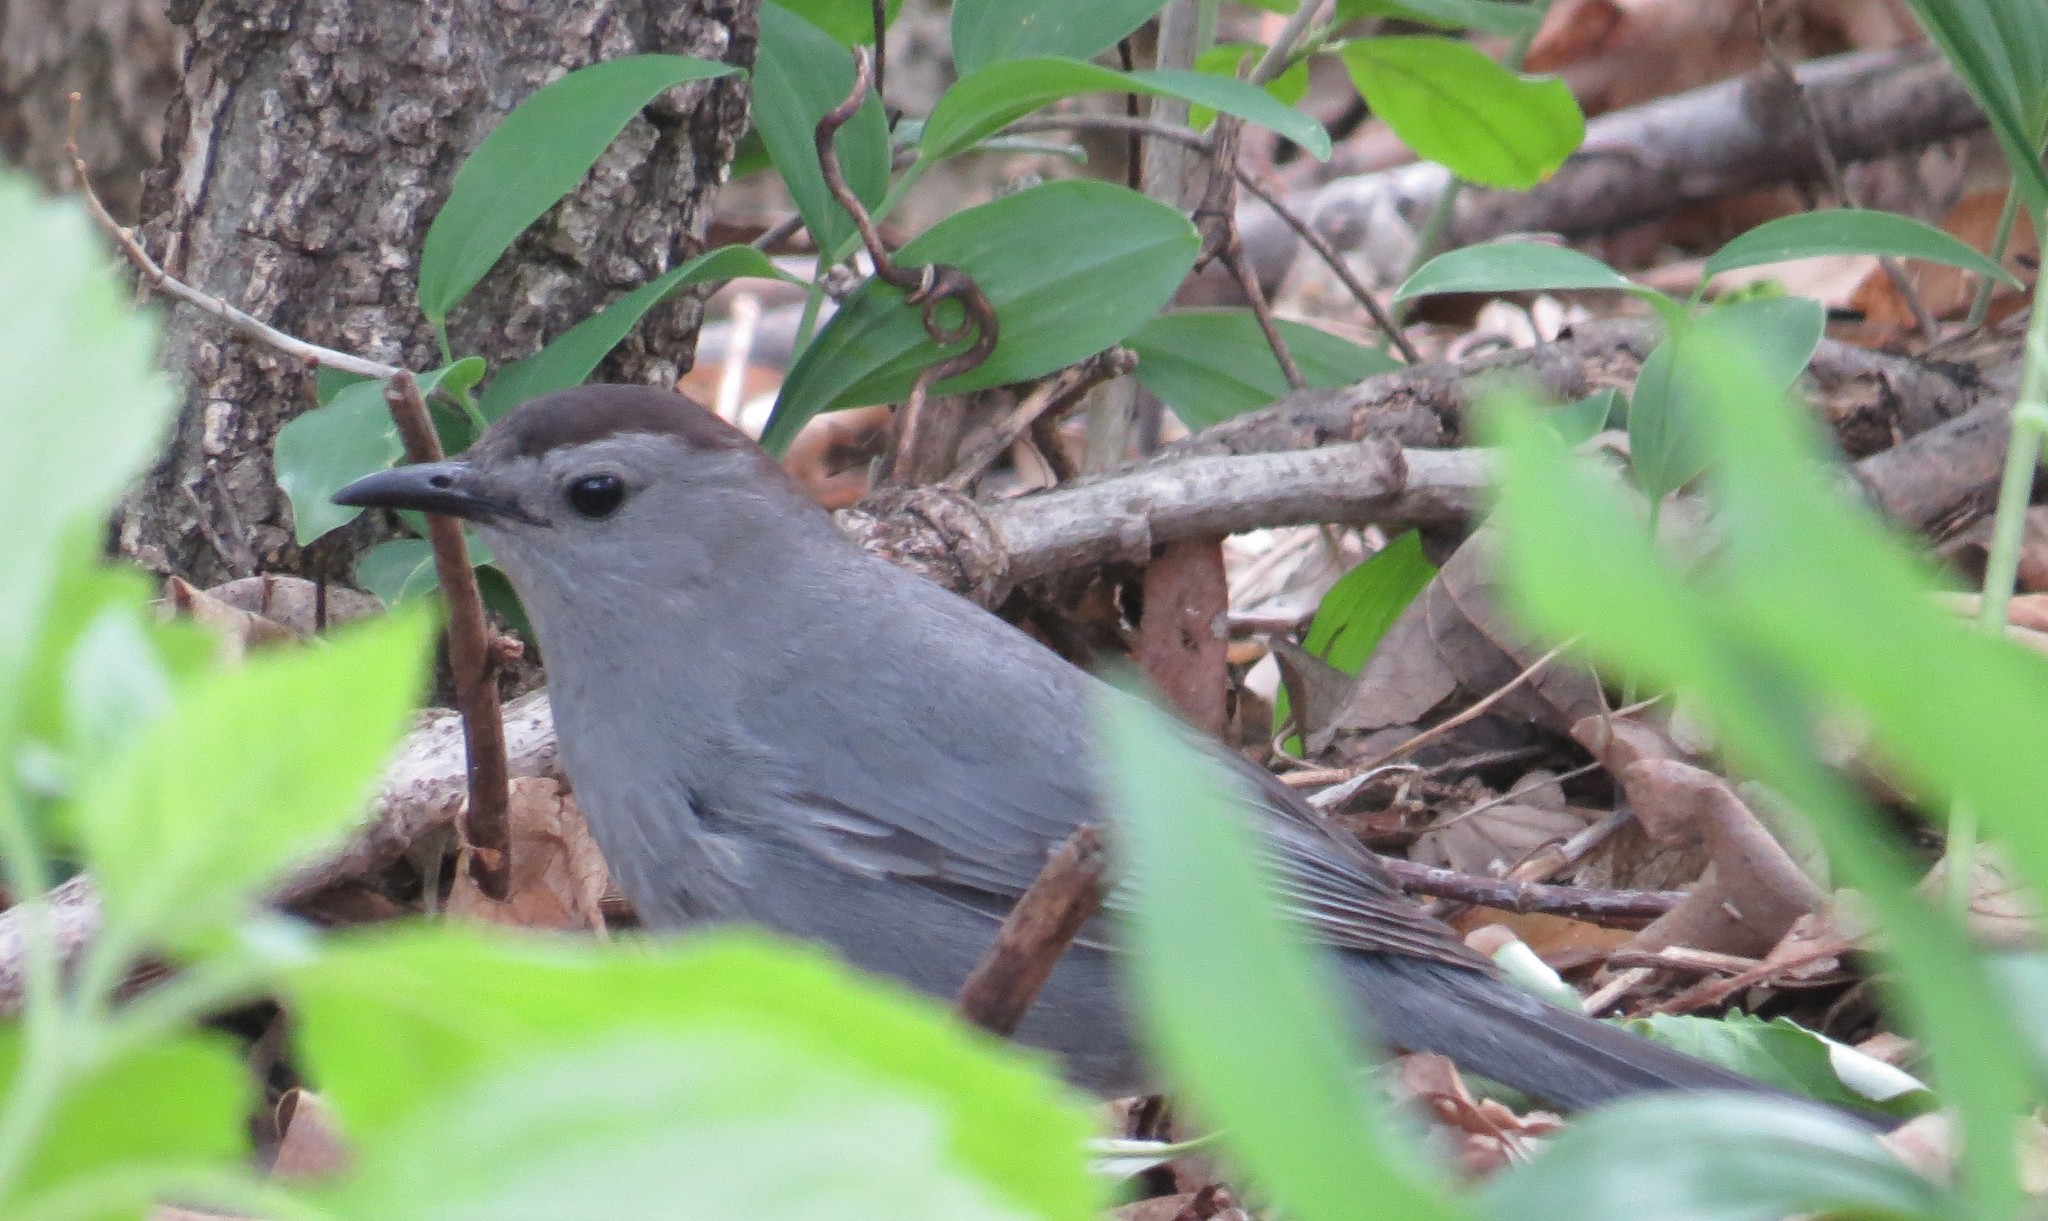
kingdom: Animalia
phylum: Chordata
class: Aves
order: Passeriformes
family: Mimidae
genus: Dumetella
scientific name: Dumetella carolinensis
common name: Gray catbird
